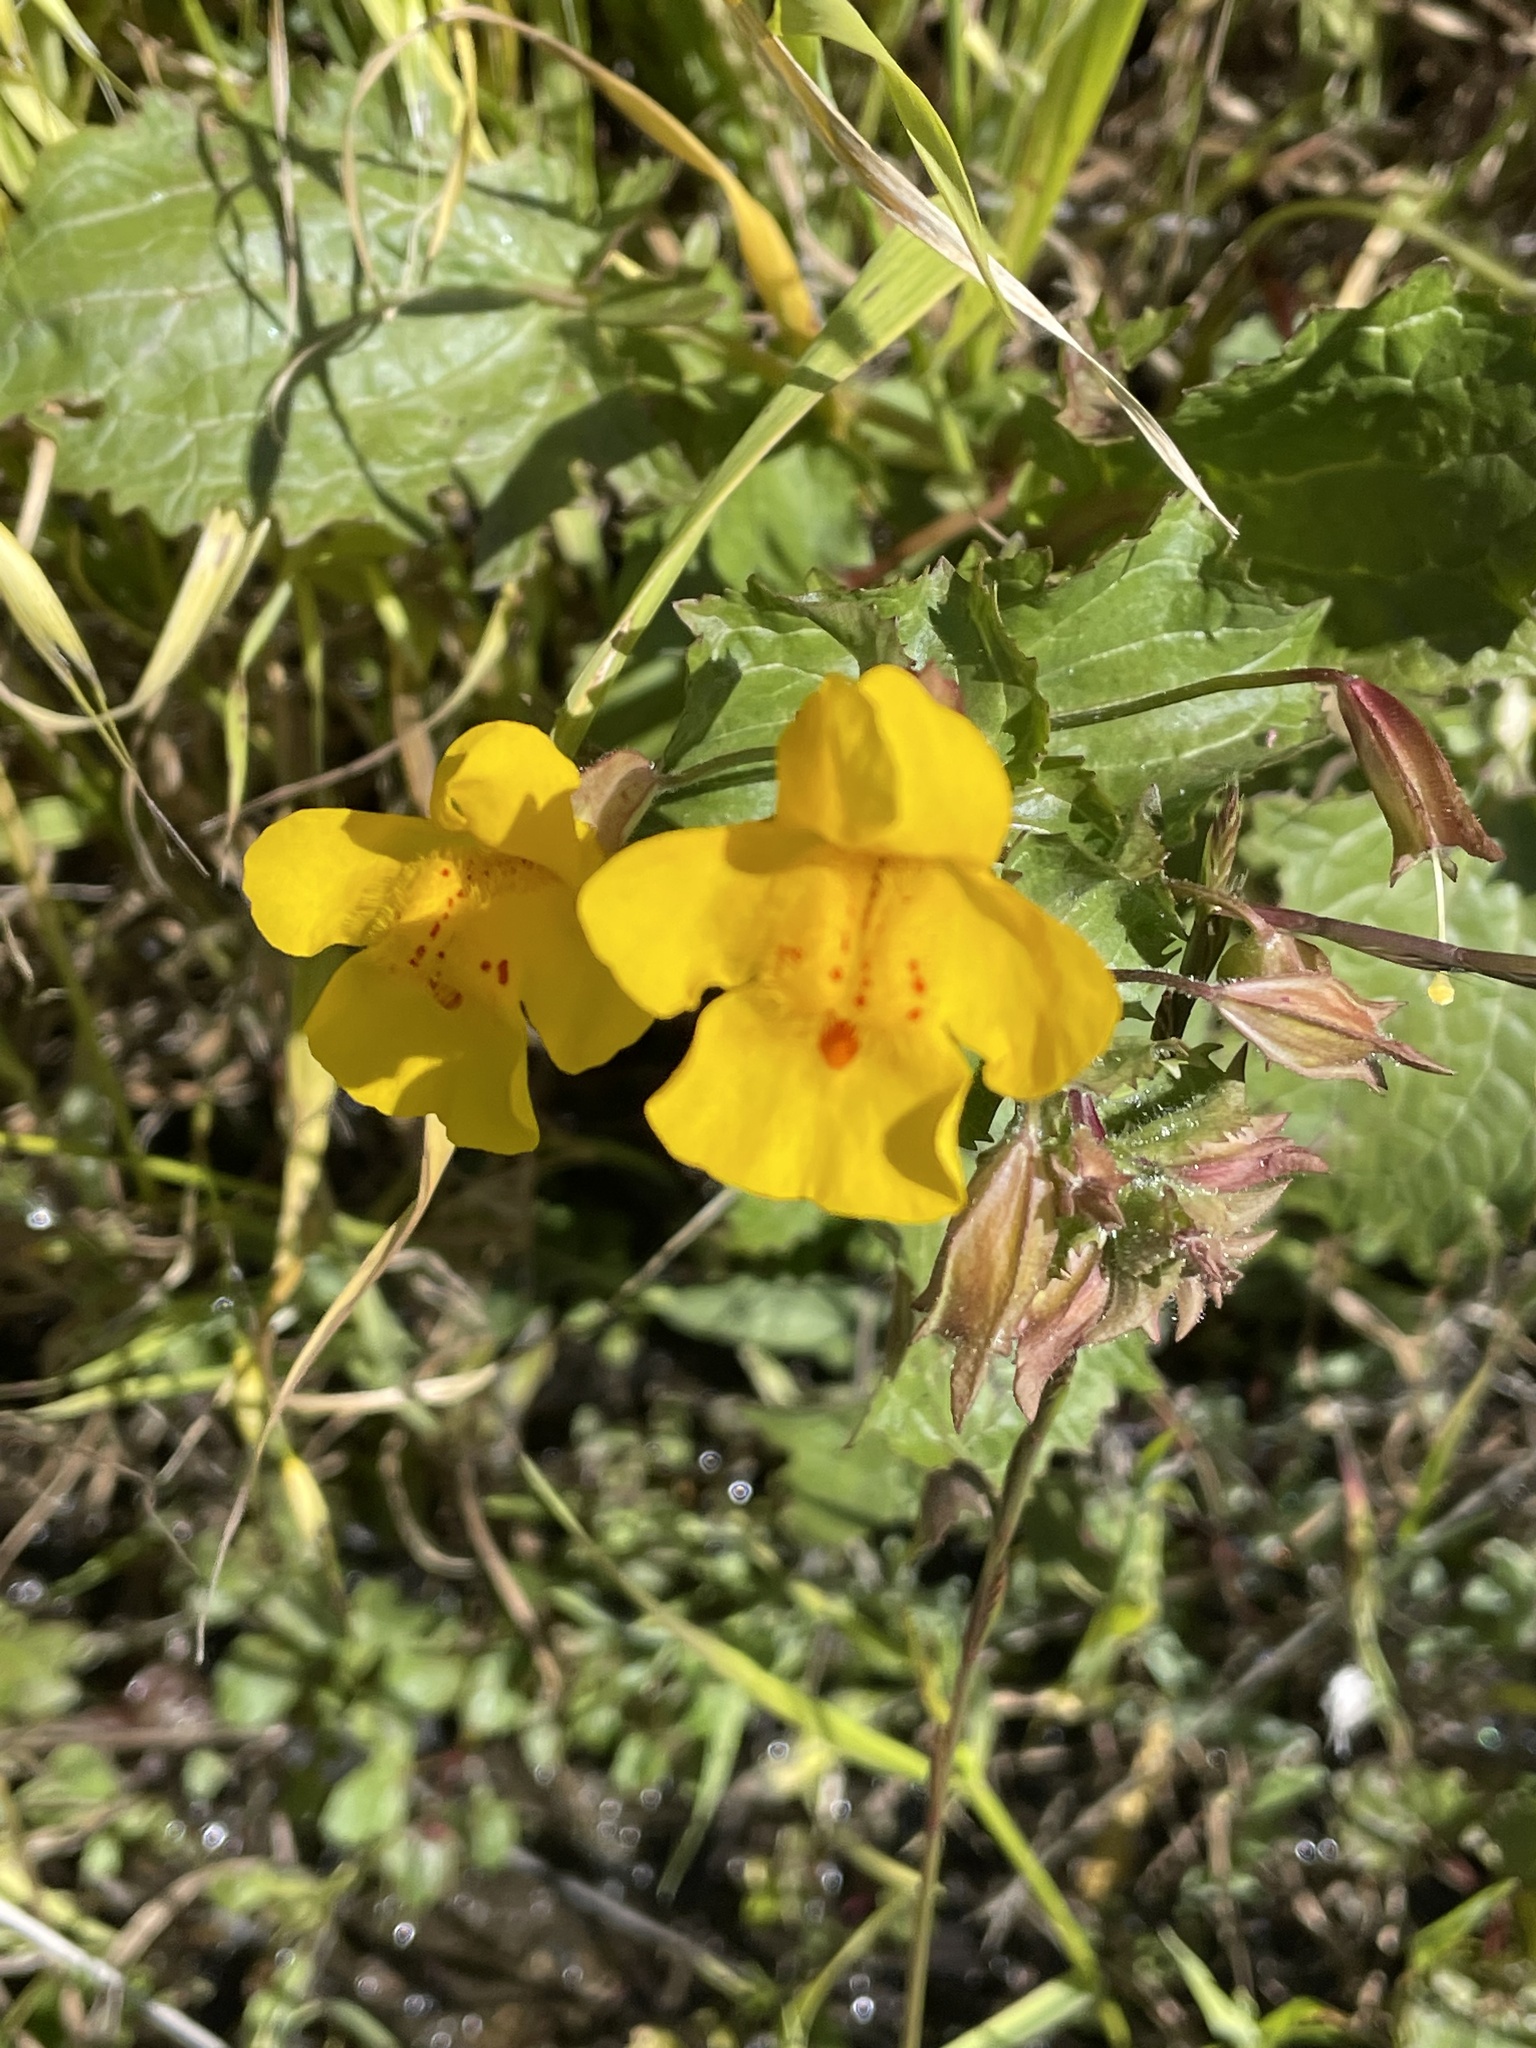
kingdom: Plantae
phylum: Tracheophyta
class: Magnoliopsida
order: Lamiales
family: Phrymaceae
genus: Erythranthe
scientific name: Erythranthe guttata
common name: Monkeyflower
